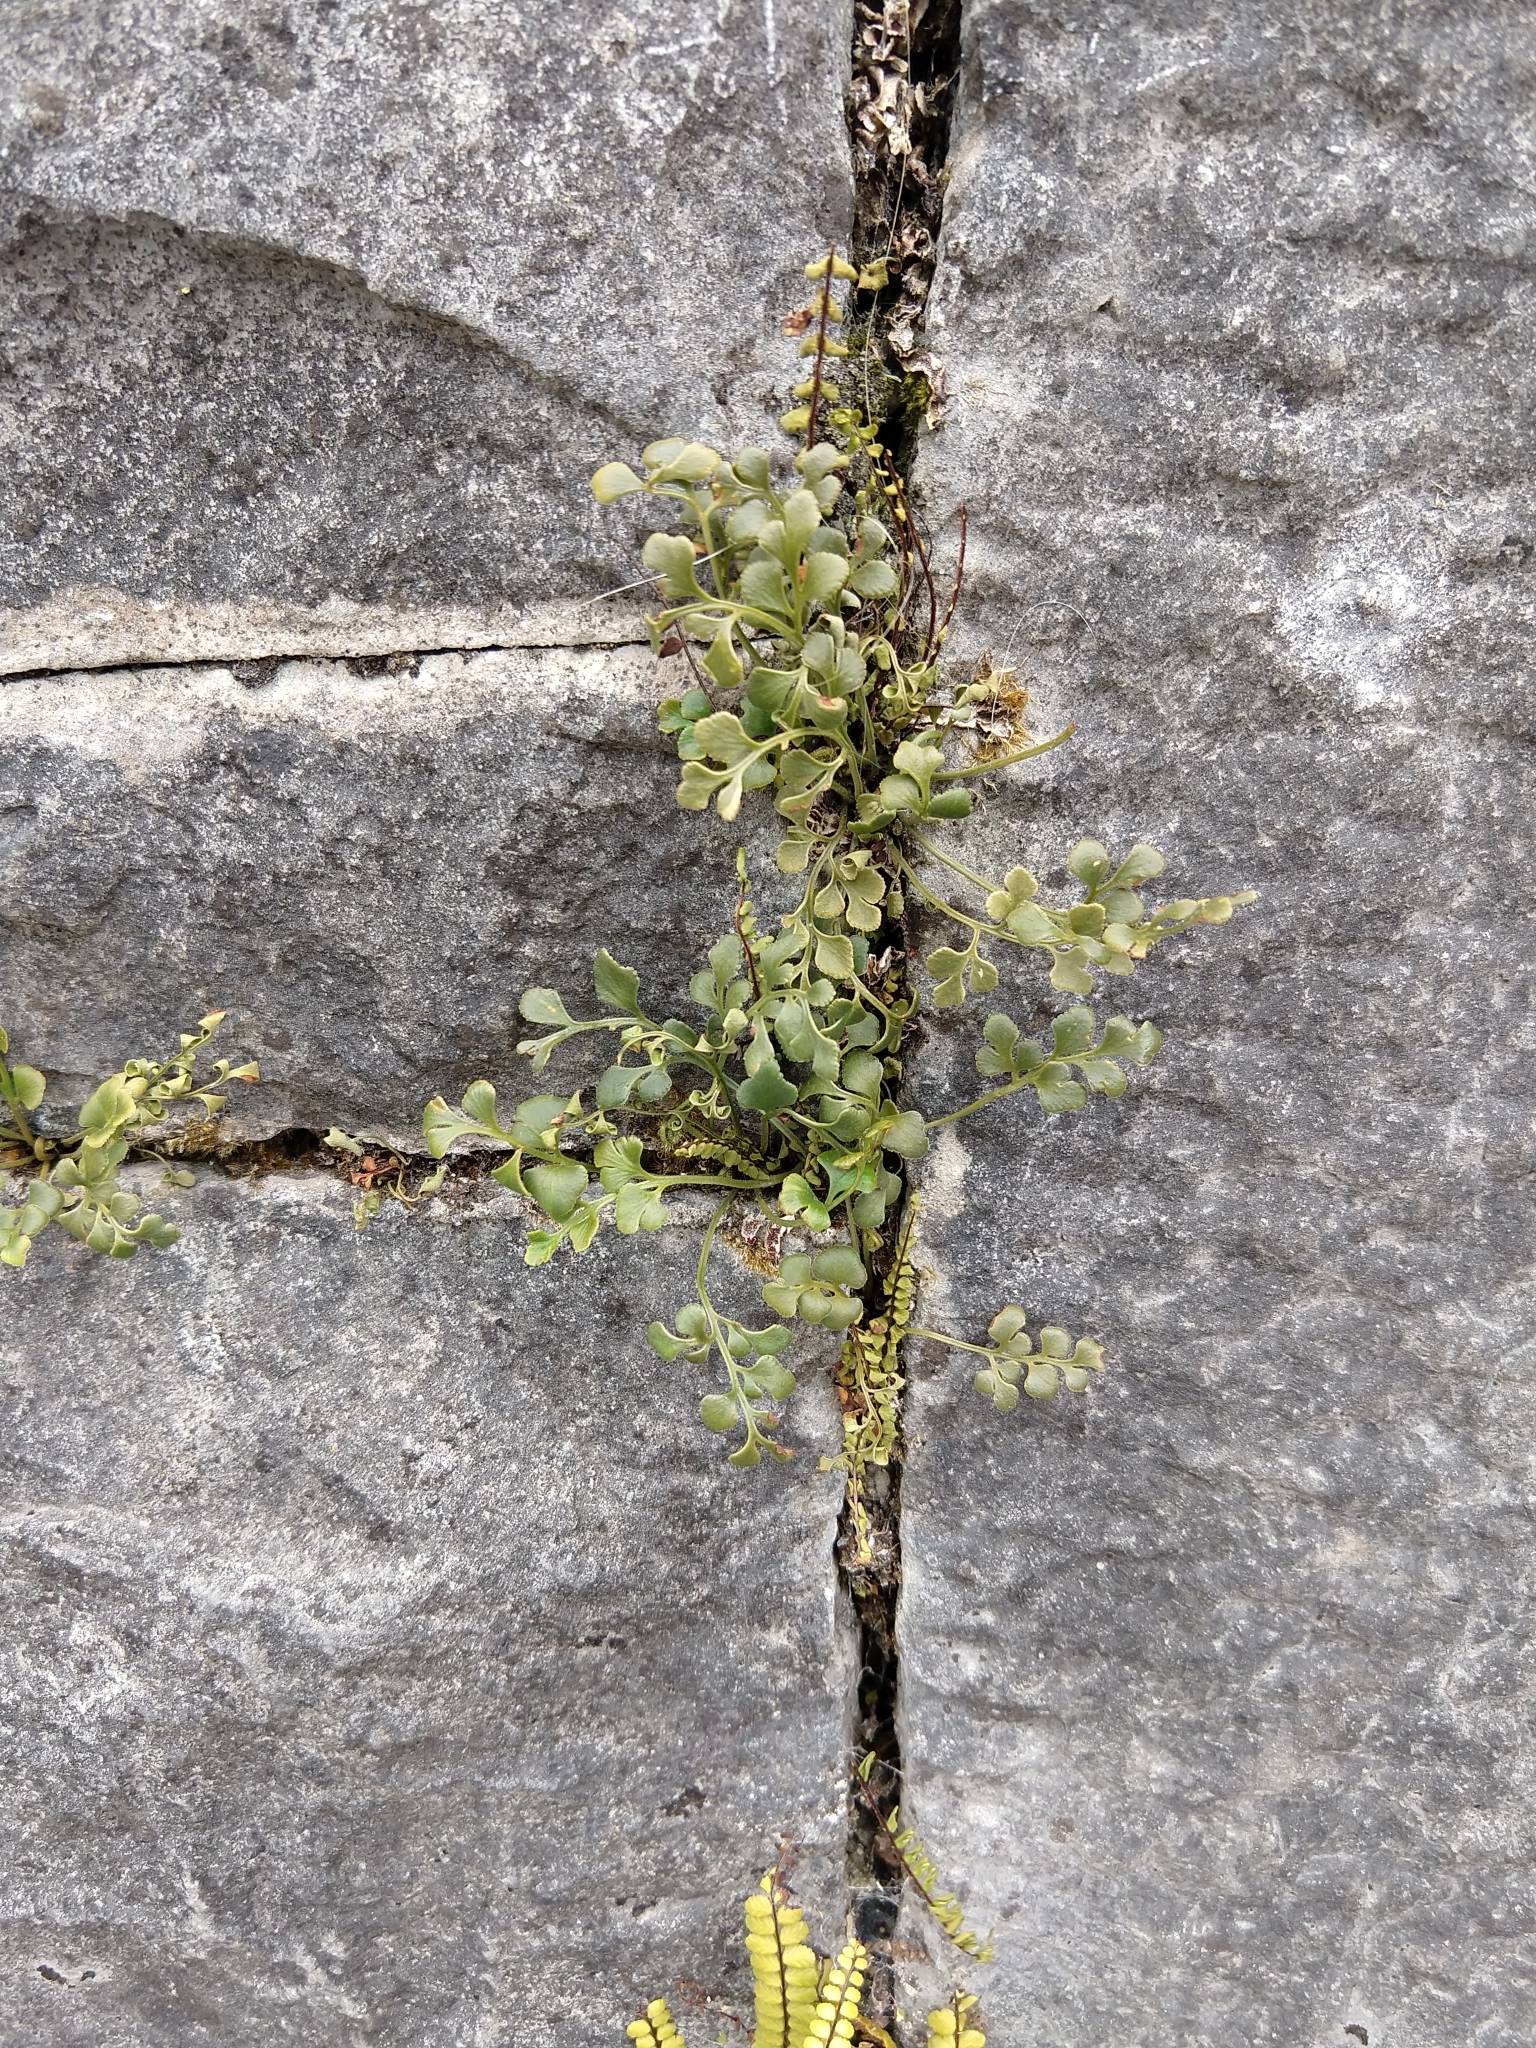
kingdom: Plantae
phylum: Tracheophyta
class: Polypodiopsida
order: Polypodiales
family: Aspleniaceae
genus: Asplenium
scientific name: Asplenium ruta-muraria
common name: Wall-rue
